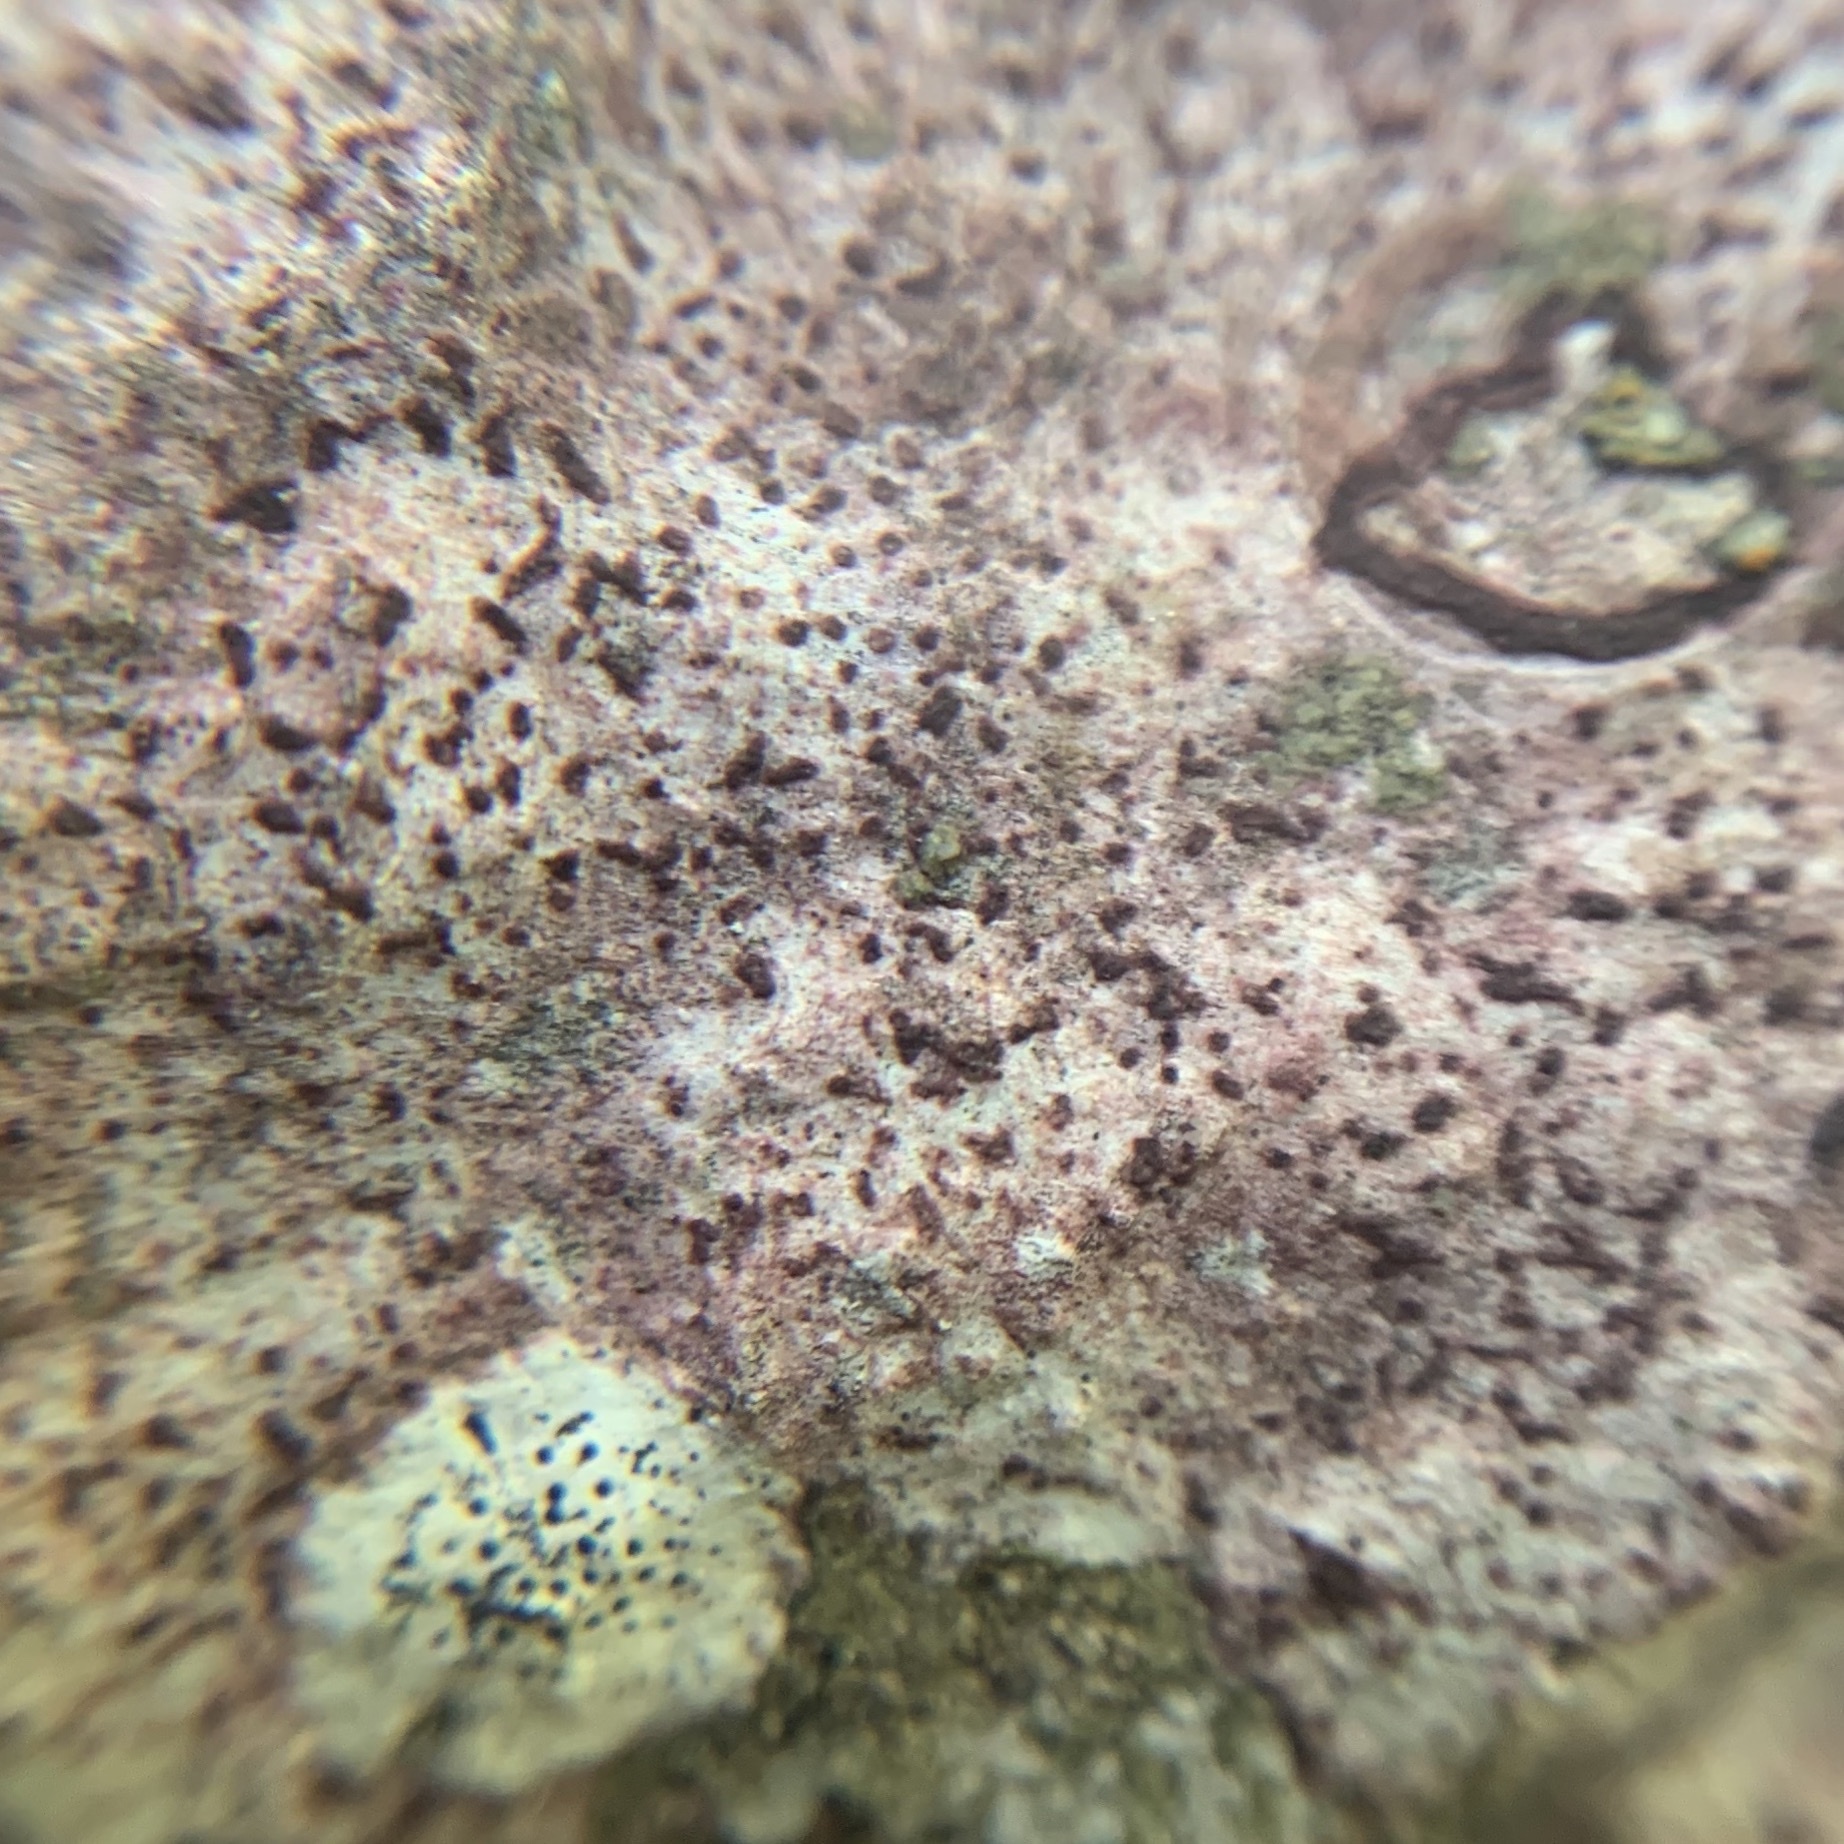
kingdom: Fungi
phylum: Ascomycota
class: Eurotiomycetes
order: Verrucariales
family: Verrucariaceae
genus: Bagliettoa
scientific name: Bagliettoa marmorea
